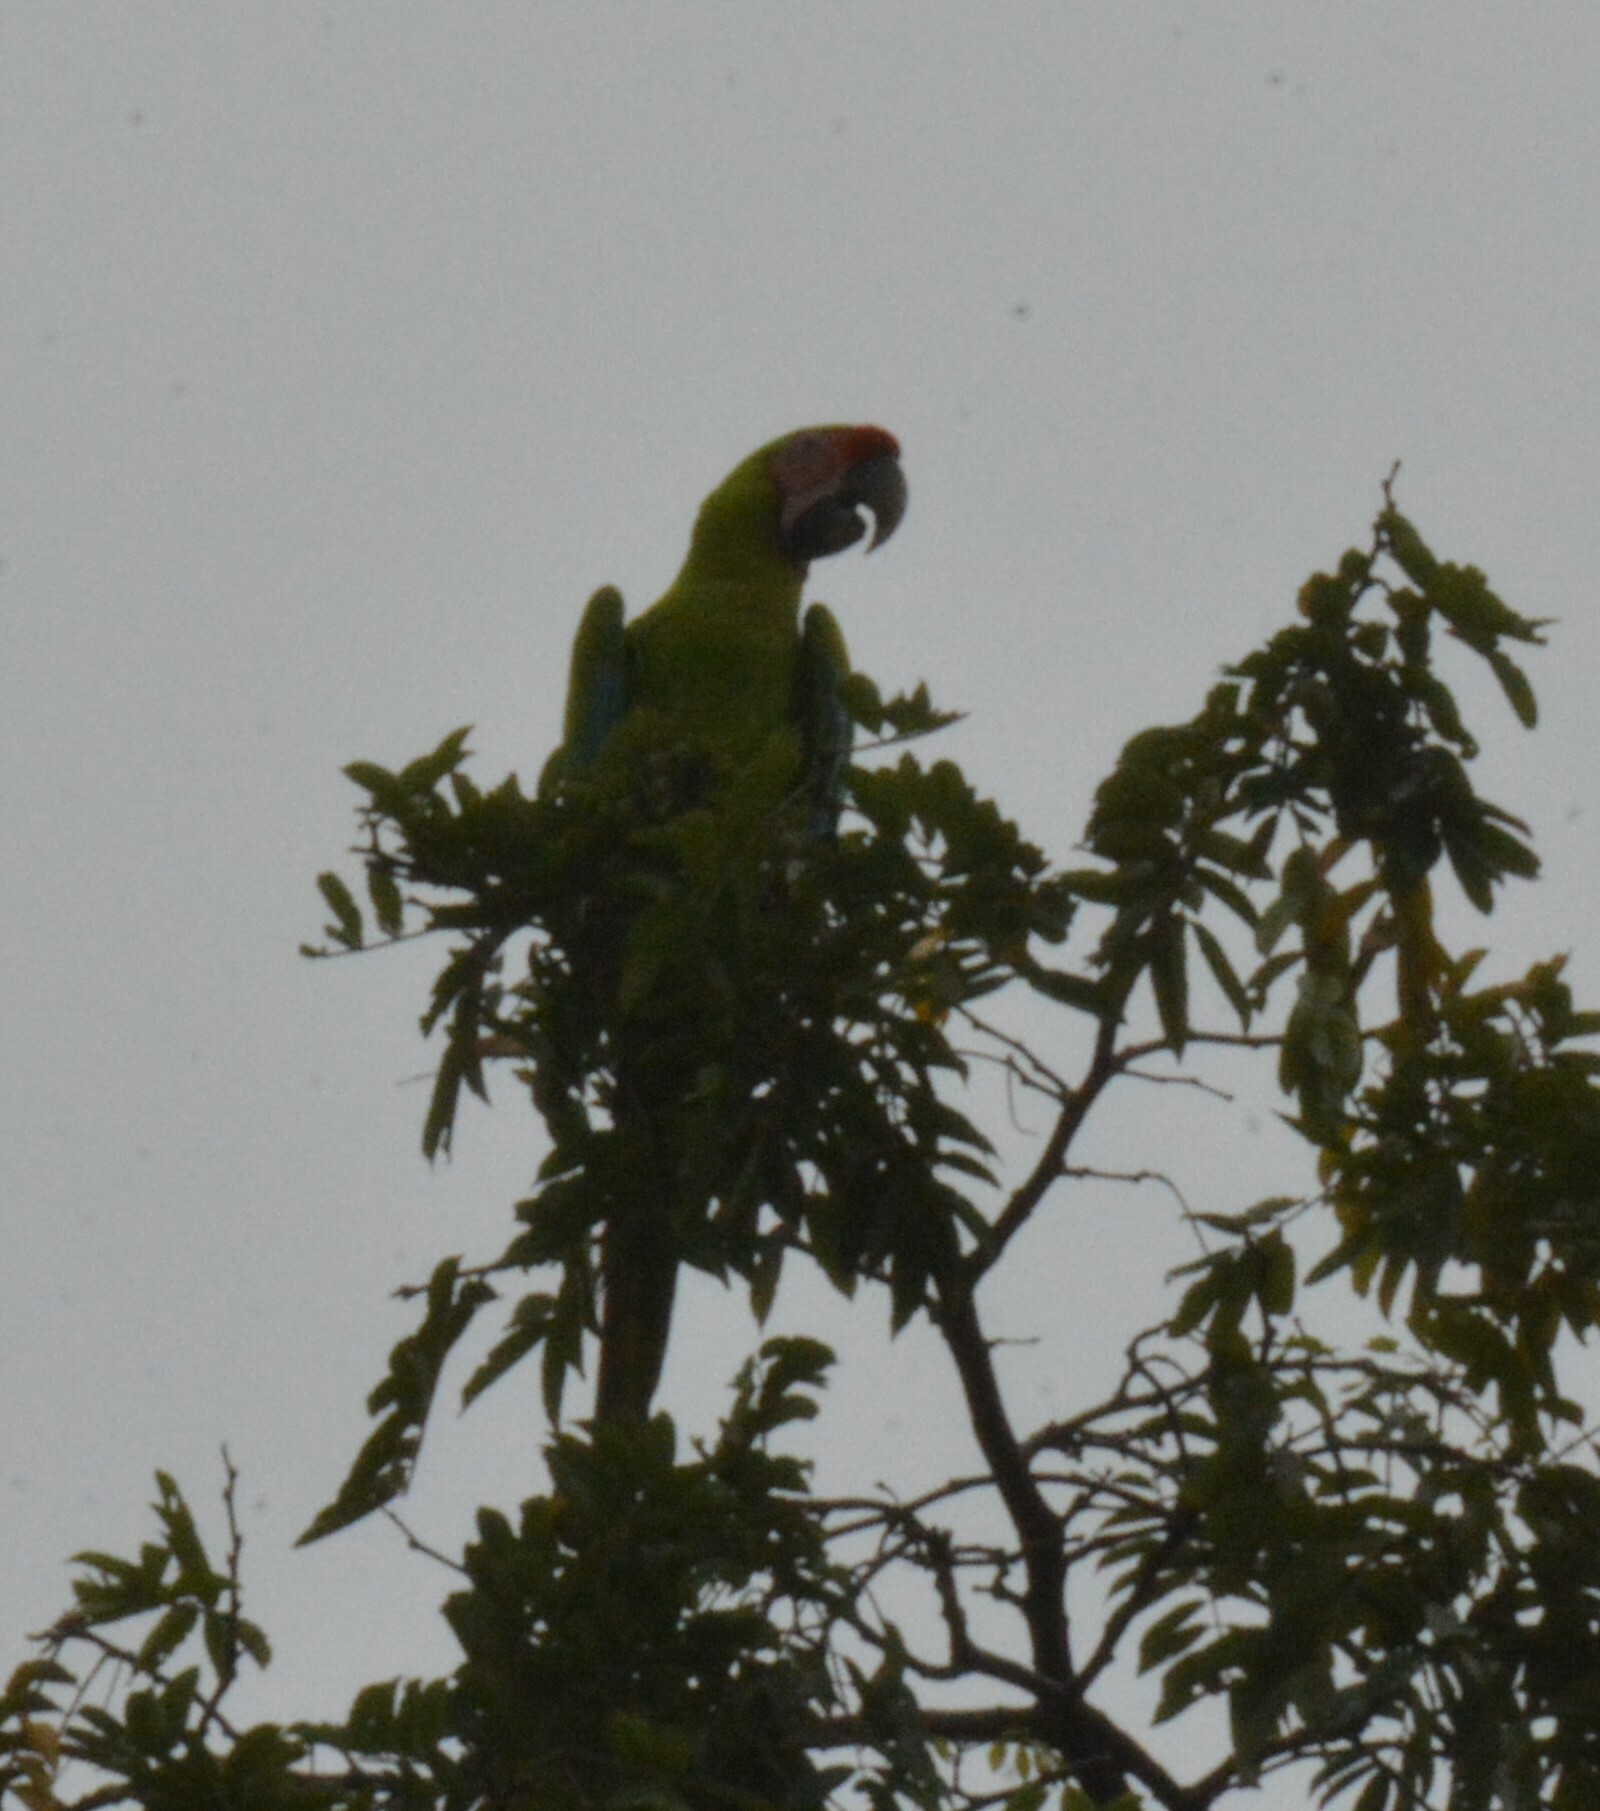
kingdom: Animalia
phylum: Chordata
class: Aves
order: Psittaciformes
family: Psittacidae
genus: Ara
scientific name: Ara ambiguus
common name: Great green macaw
